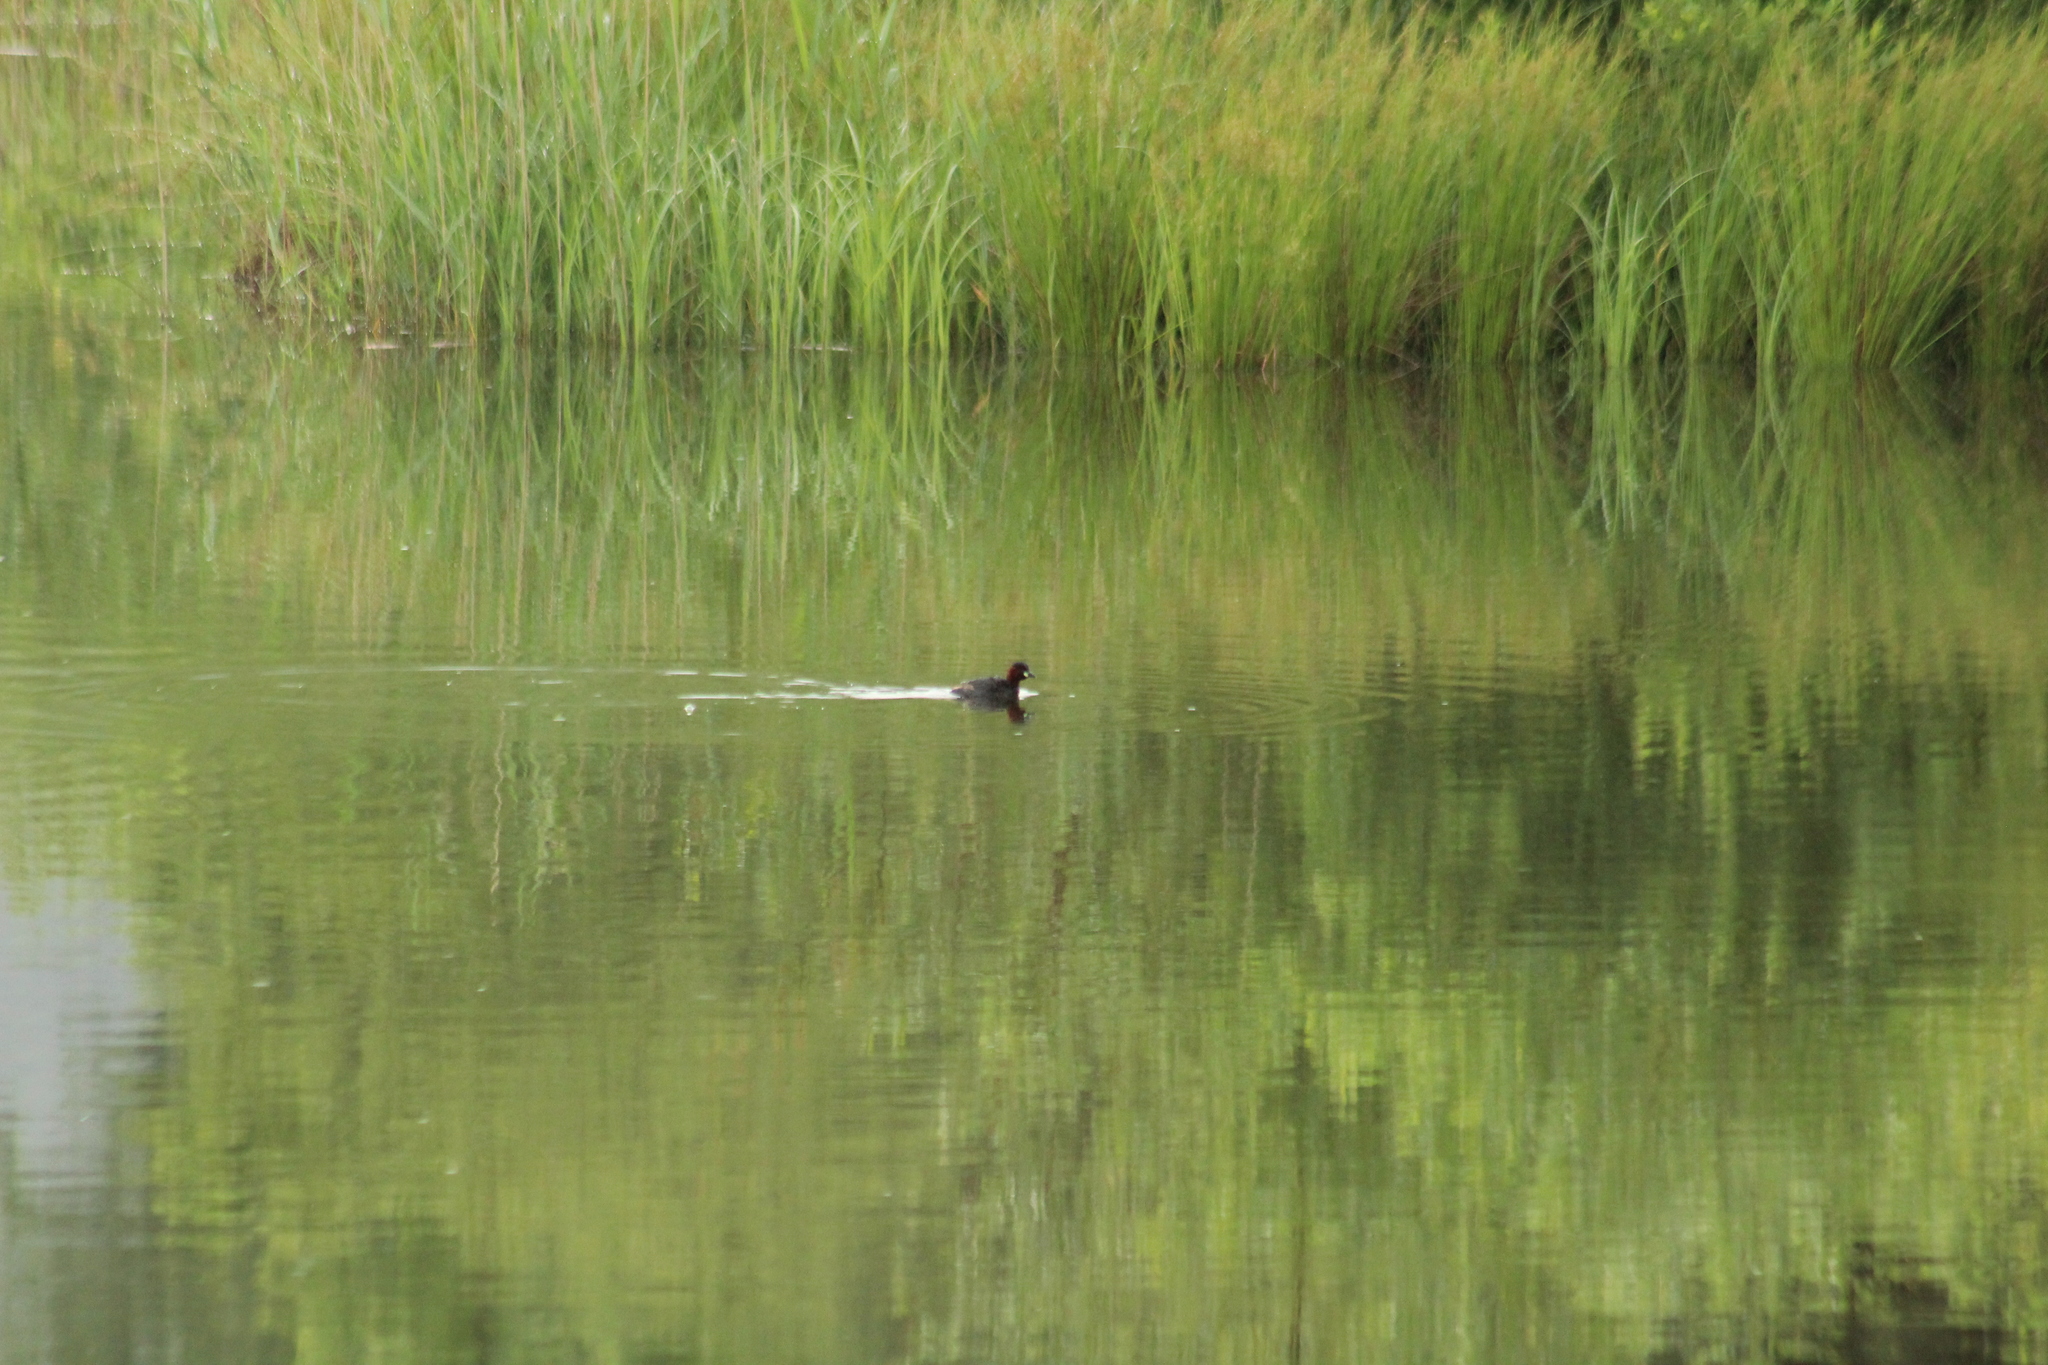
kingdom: Animalia
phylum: Chordata
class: Aves
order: Podicipediformes
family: Podicipedidae
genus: Tachybaptus
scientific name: Tachybaptus ruficollis
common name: Little grebe
